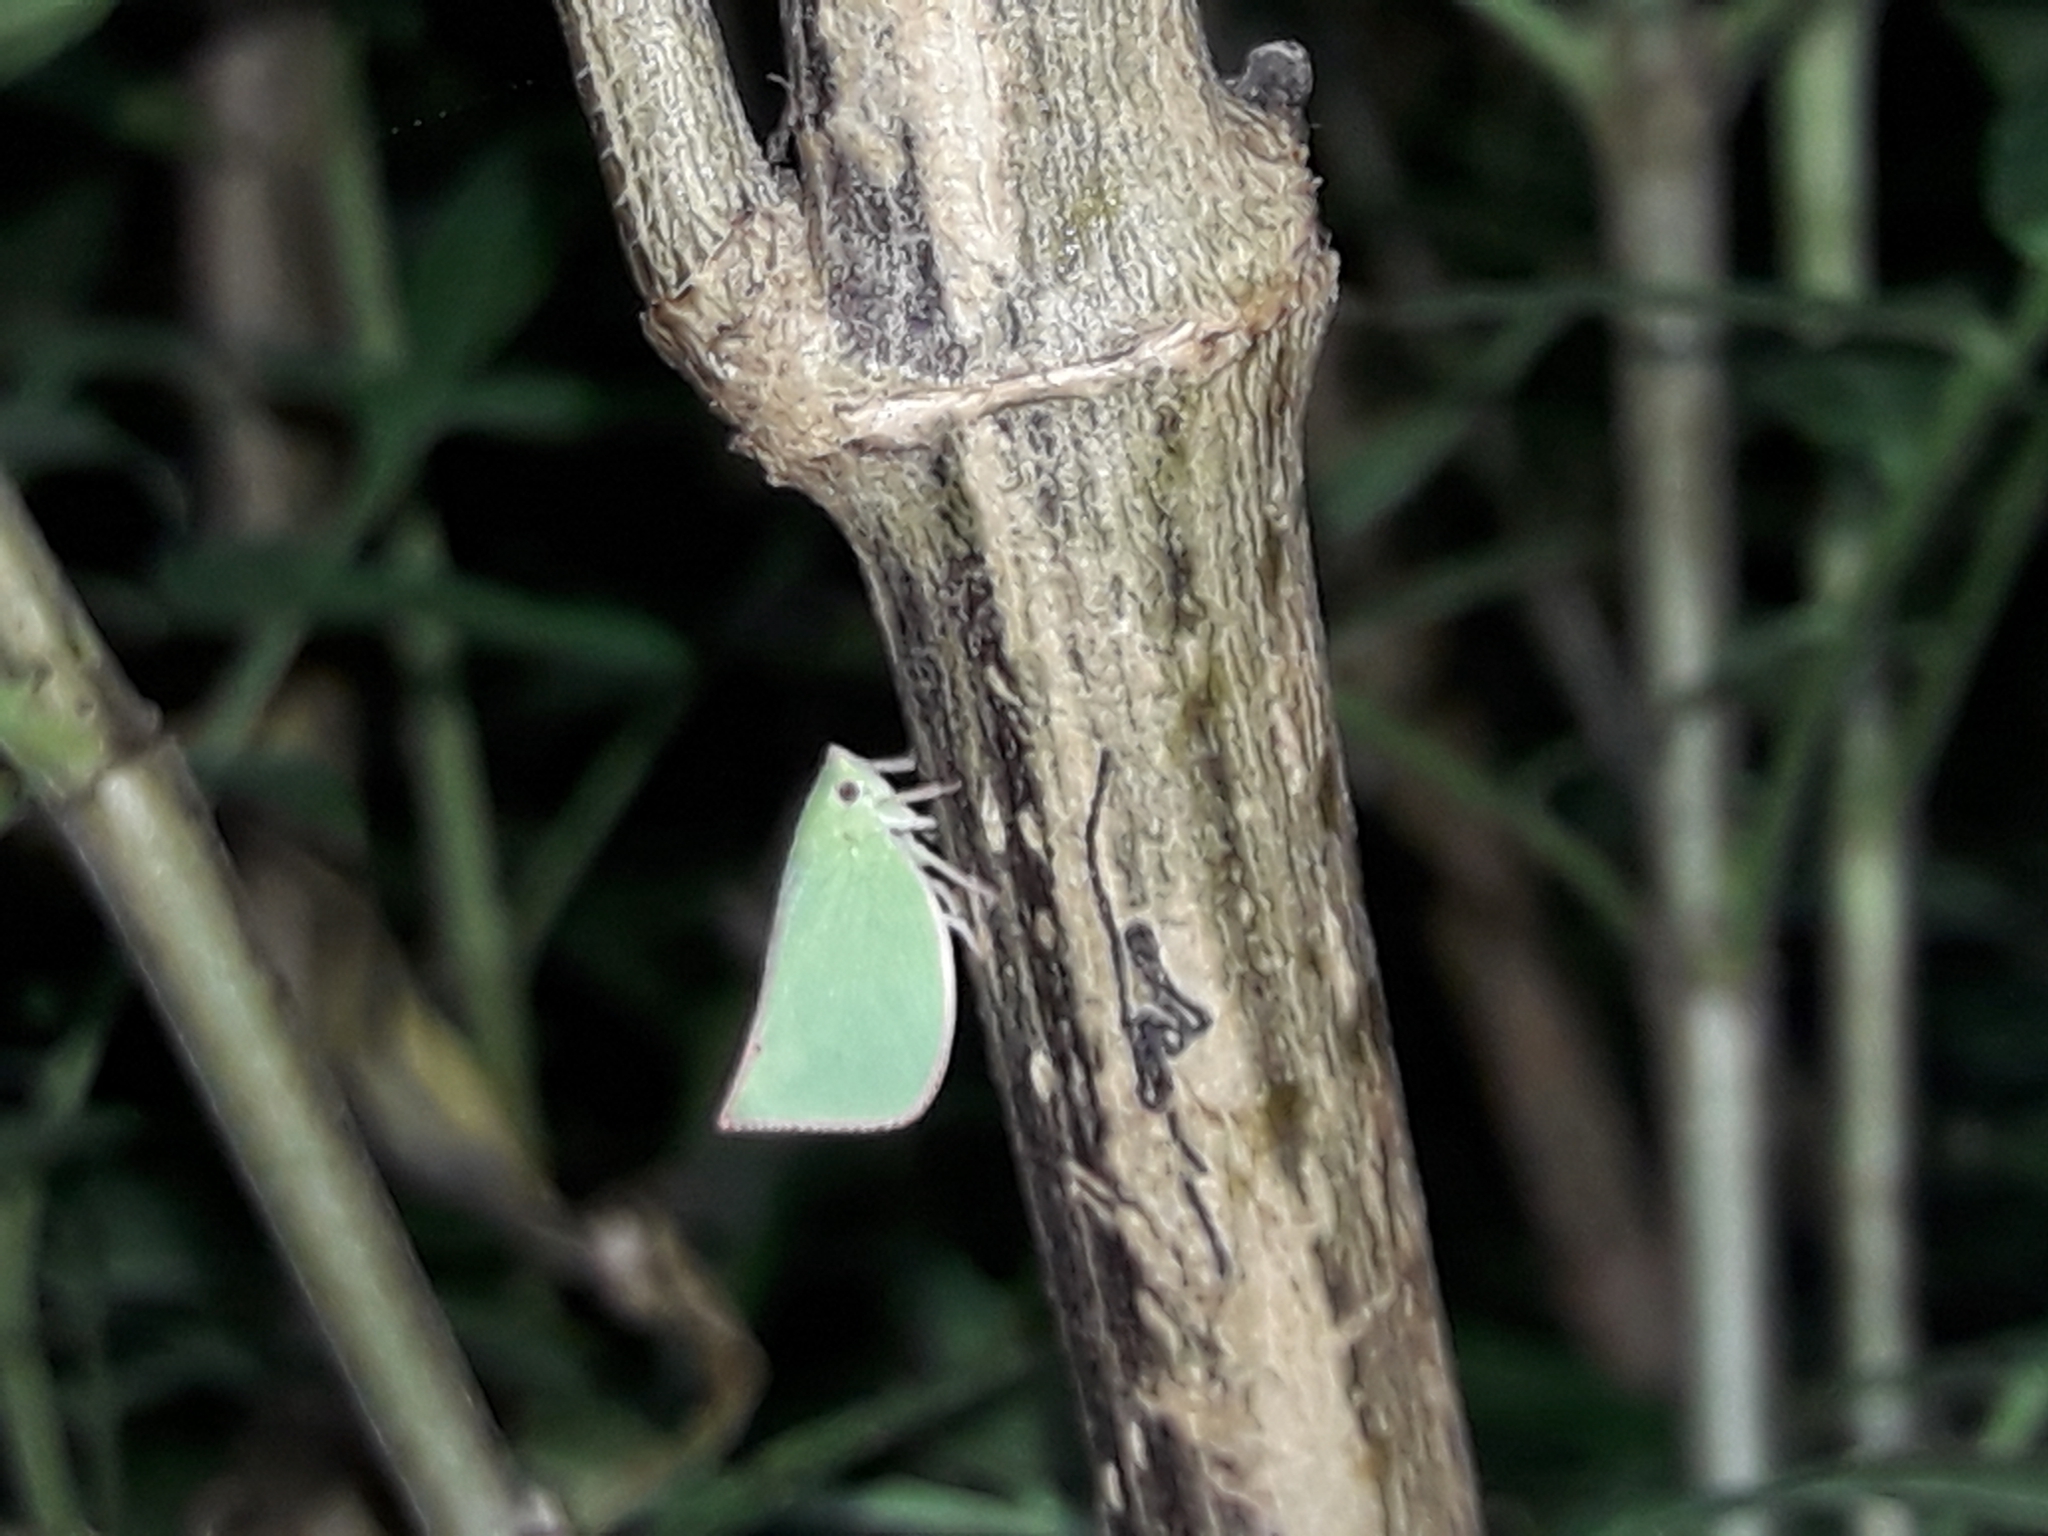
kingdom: Animalia
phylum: Arthropoda
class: Insecta
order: Hemiptera
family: Flatidae
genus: Siphanta
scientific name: Siphanta acuta
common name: Torpedo bug
